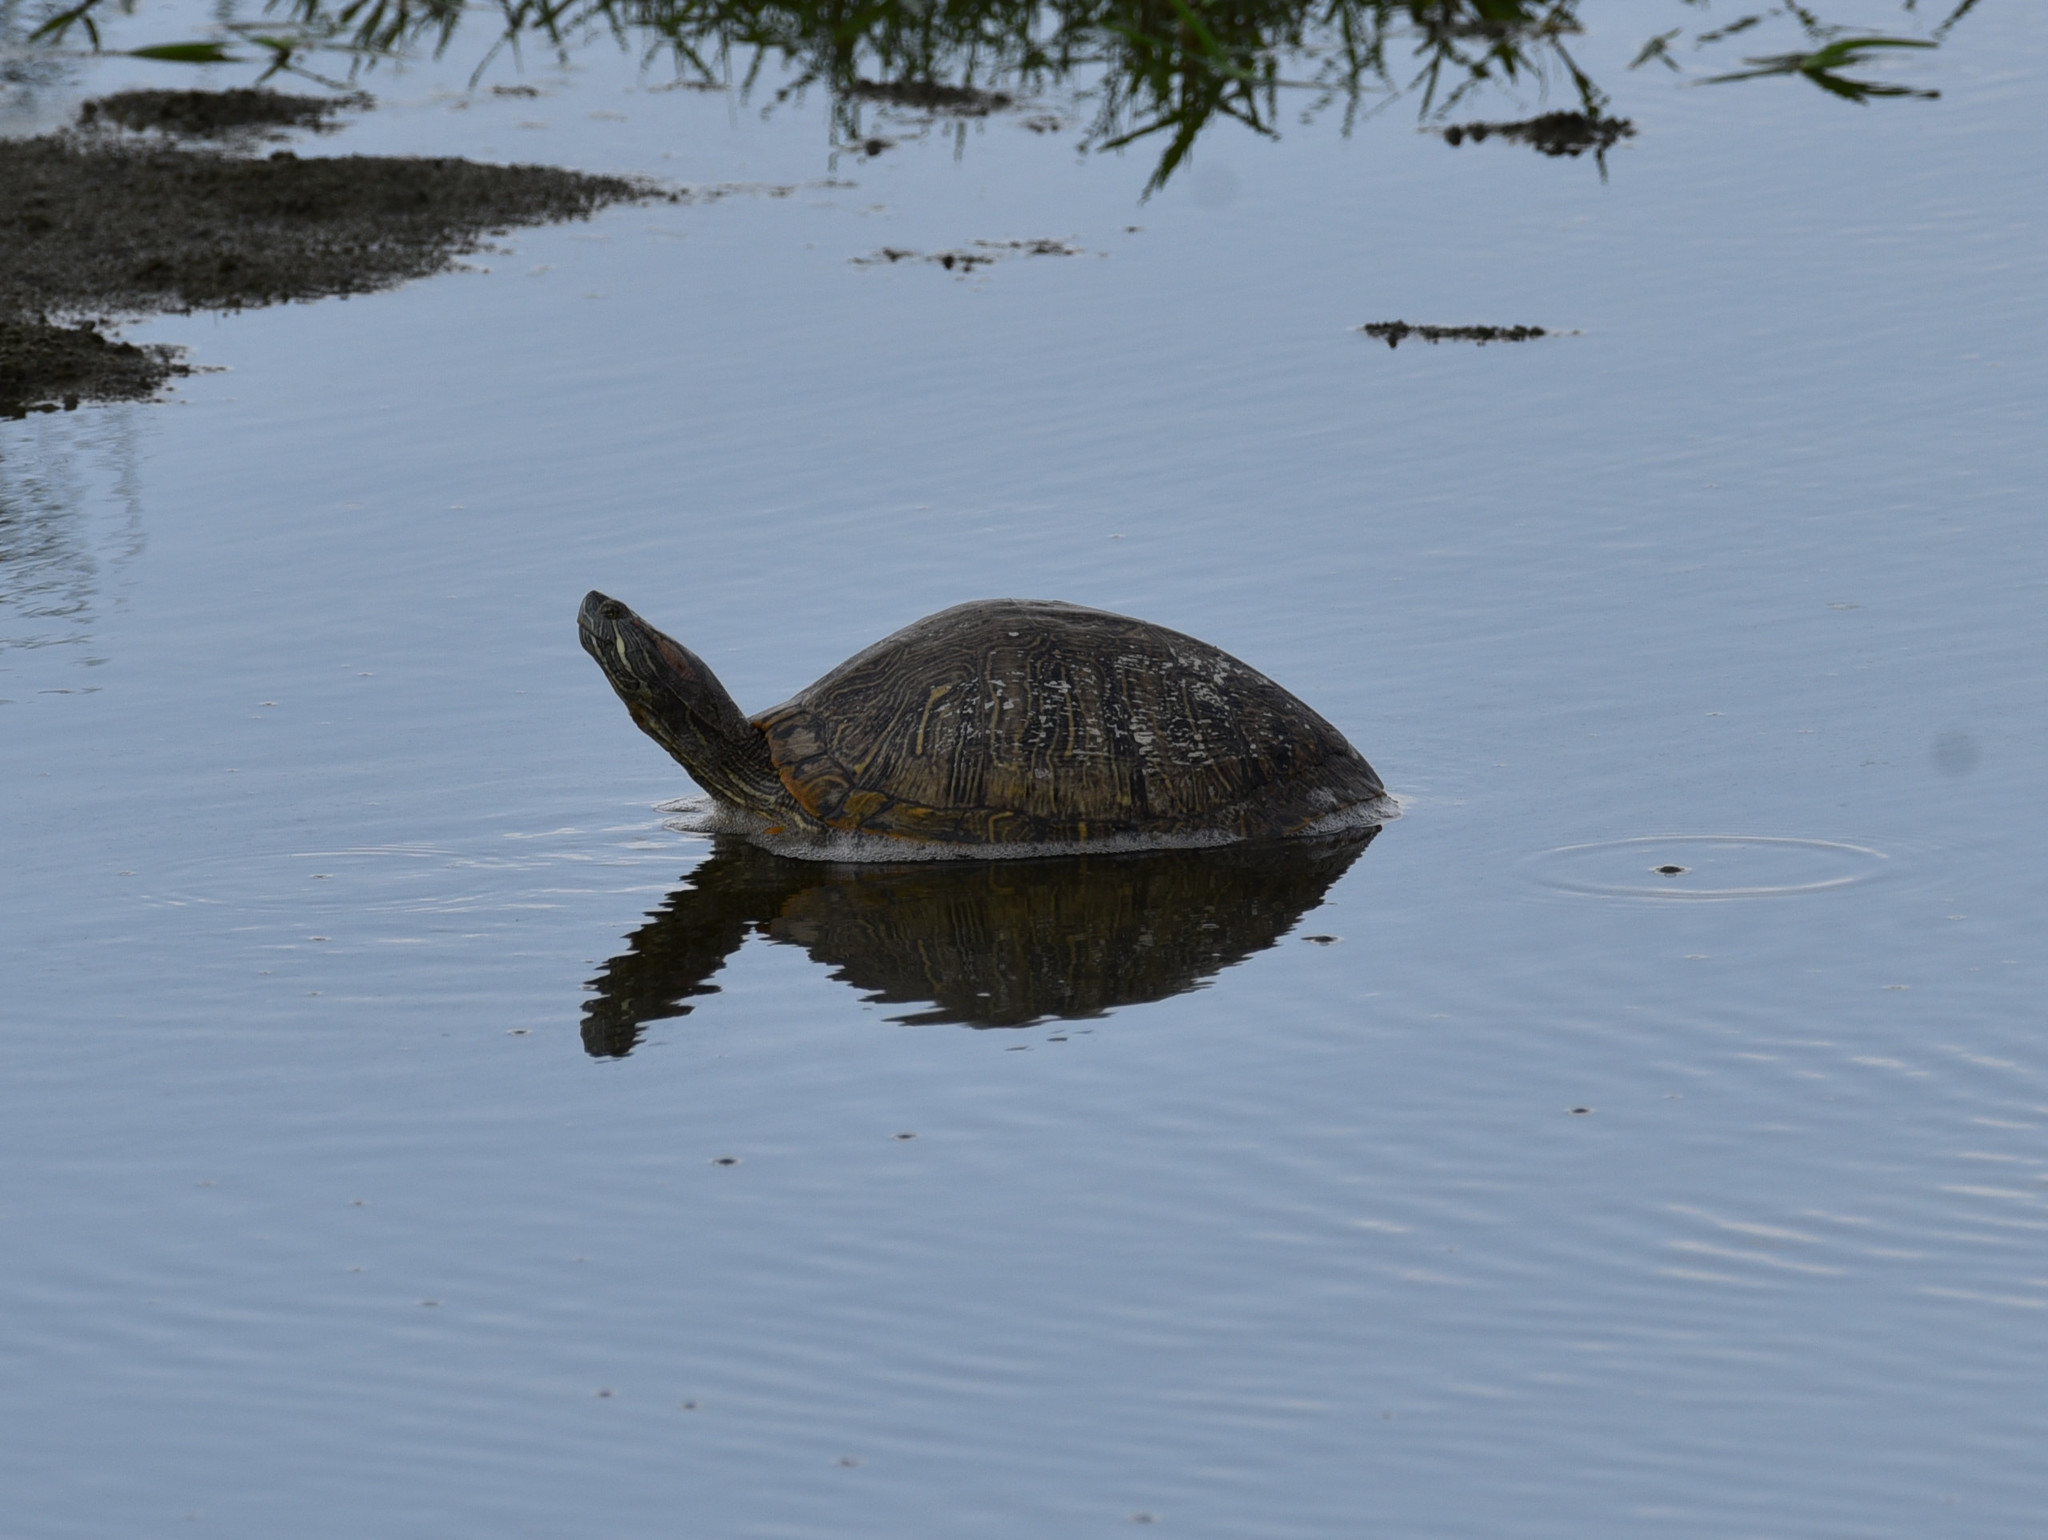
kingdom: Animalia
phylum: Chordata
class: Testudines
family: Emydidae
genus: Trachemys
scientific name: Trachemys scripta
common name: Slider
